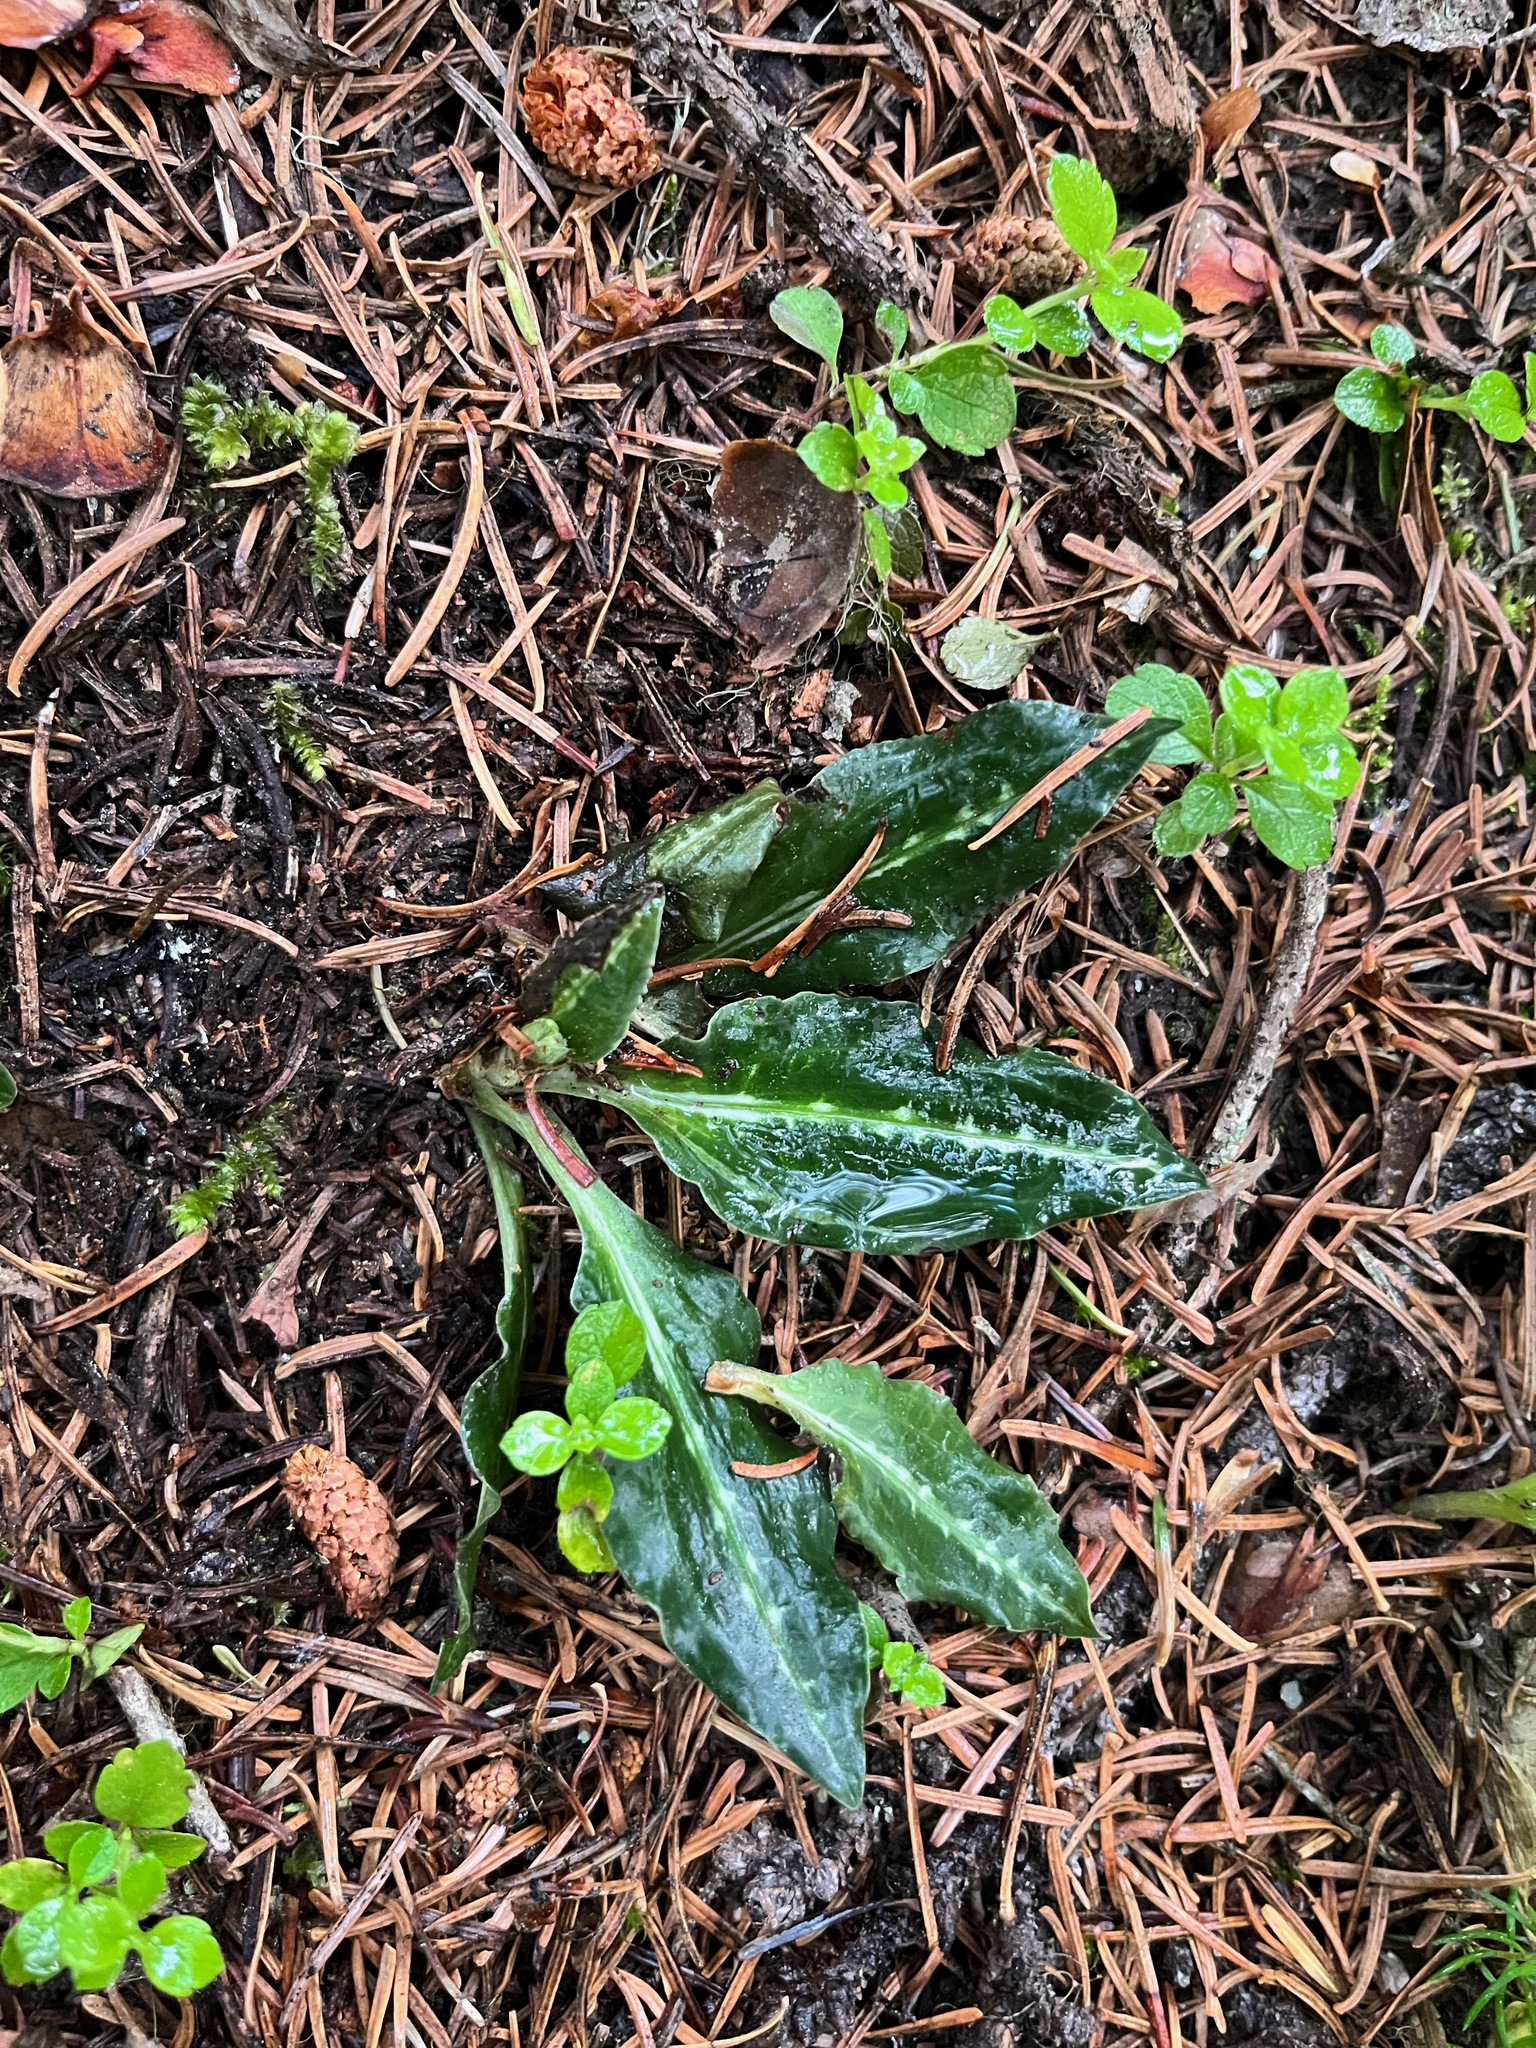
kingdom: Plantae
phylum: Tracheophyta
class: Liliopsida
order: Asparagales
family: Orchidaceae
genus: Goodyera
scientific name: Goodyera oblongifolia
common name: Giant rattlesnake-plantain
